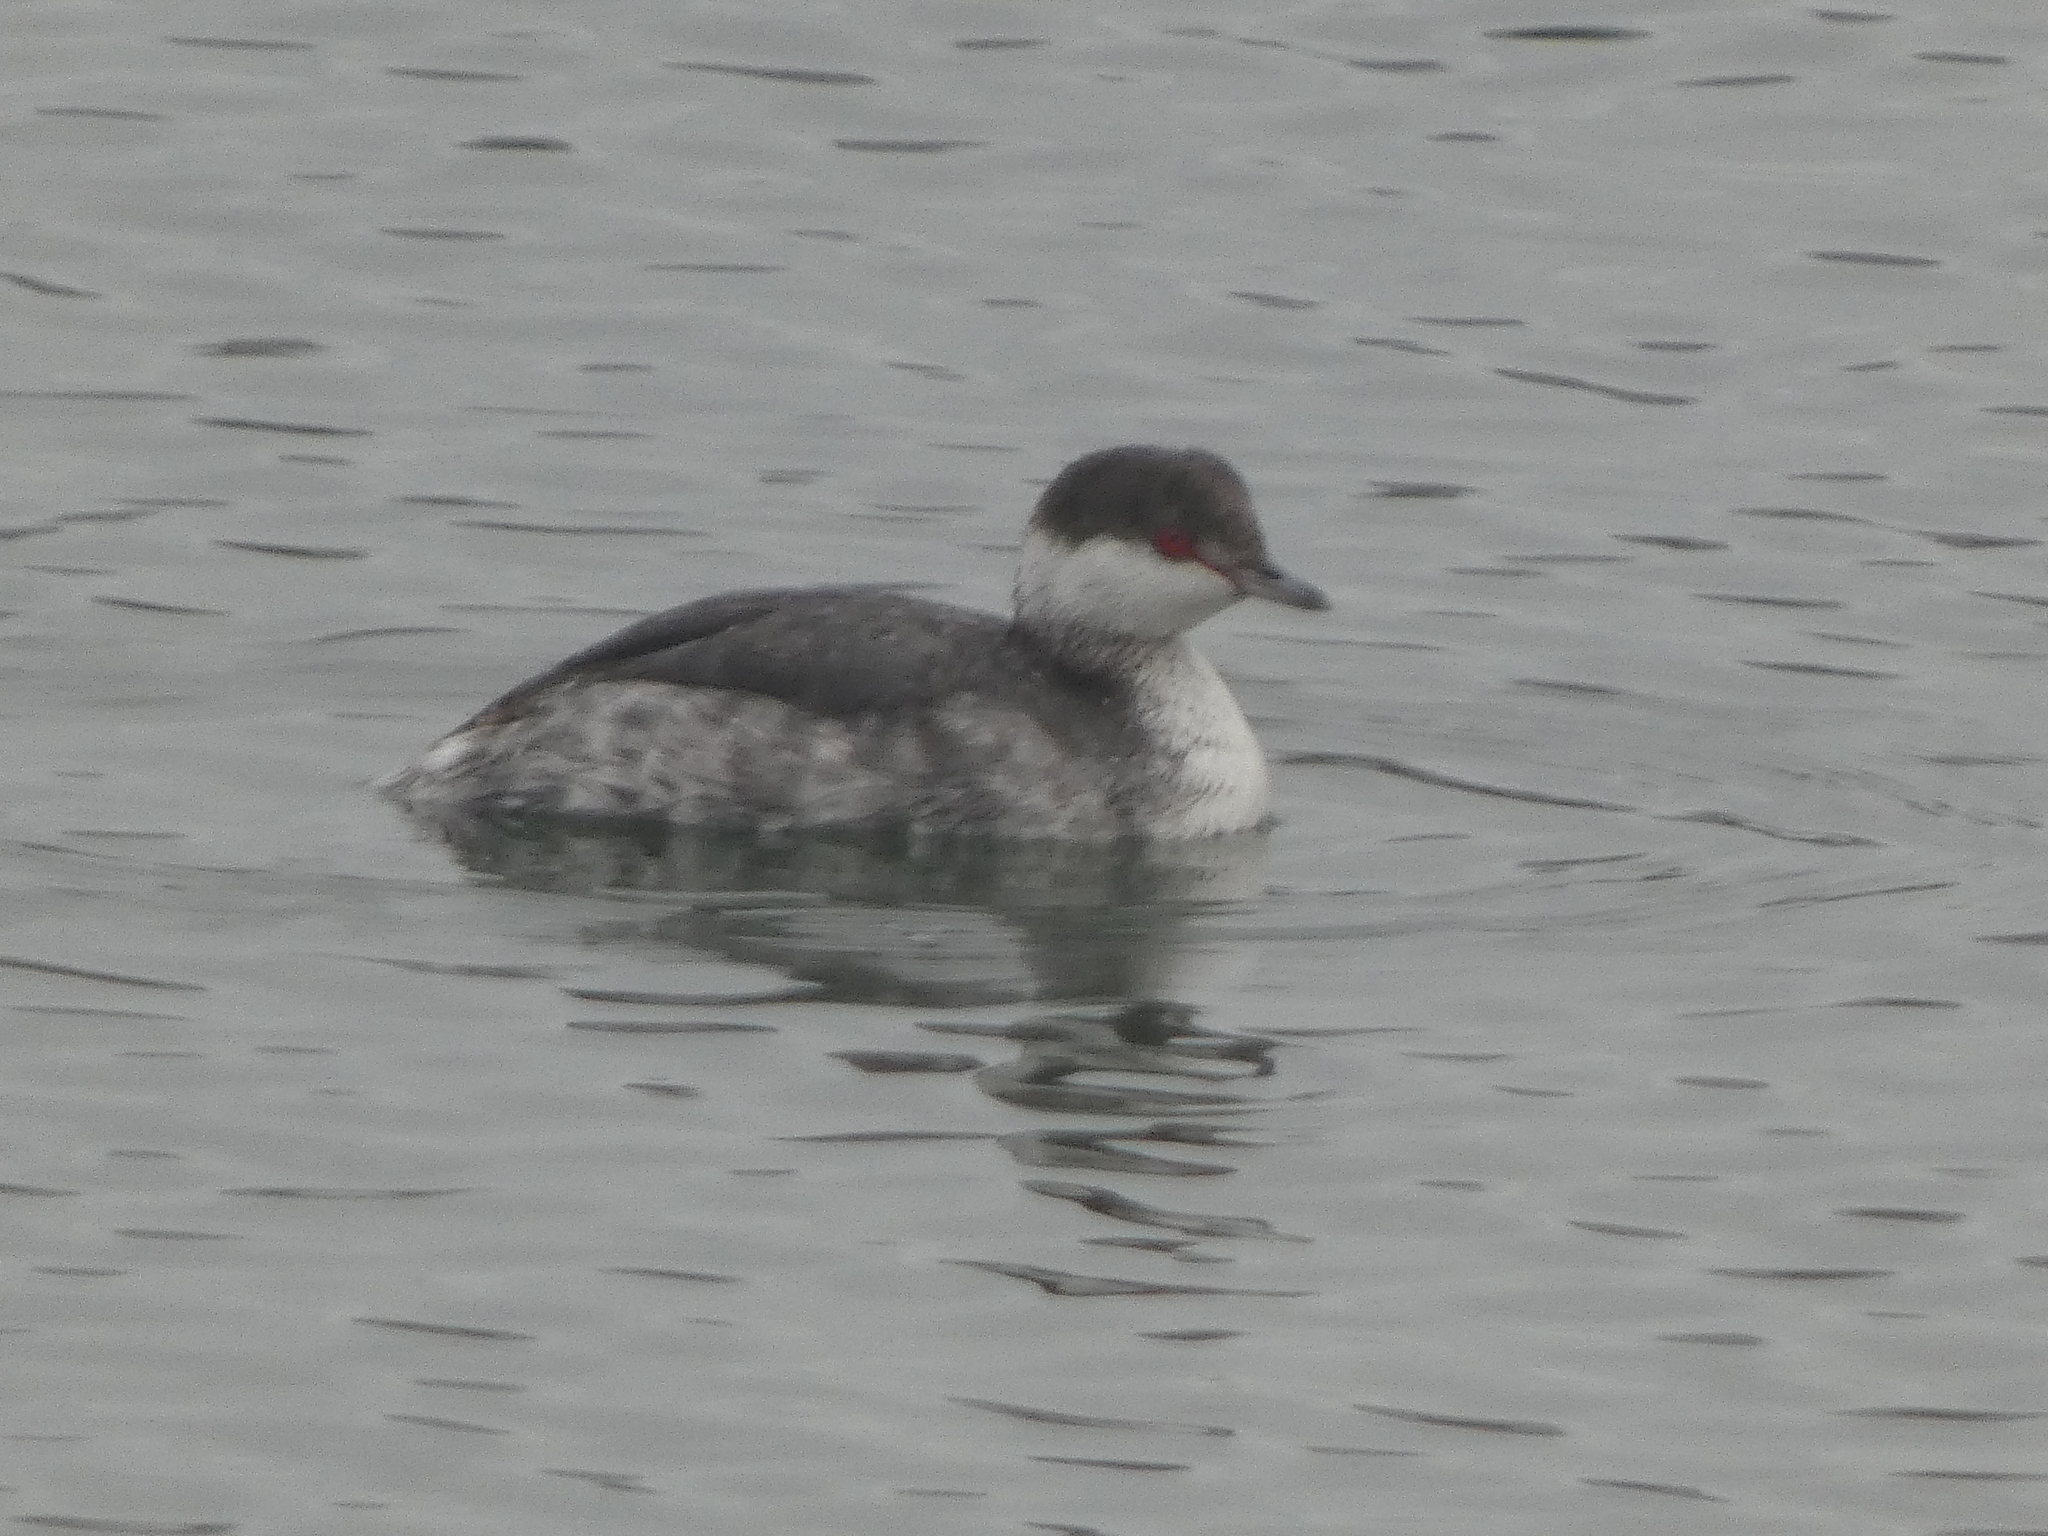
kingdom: Animalia
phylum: Chordata
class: Aves
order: Podicipediformes
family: Podicipedidae
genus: Podiceps
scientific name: Podiceps auritus
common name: Horned grebe
